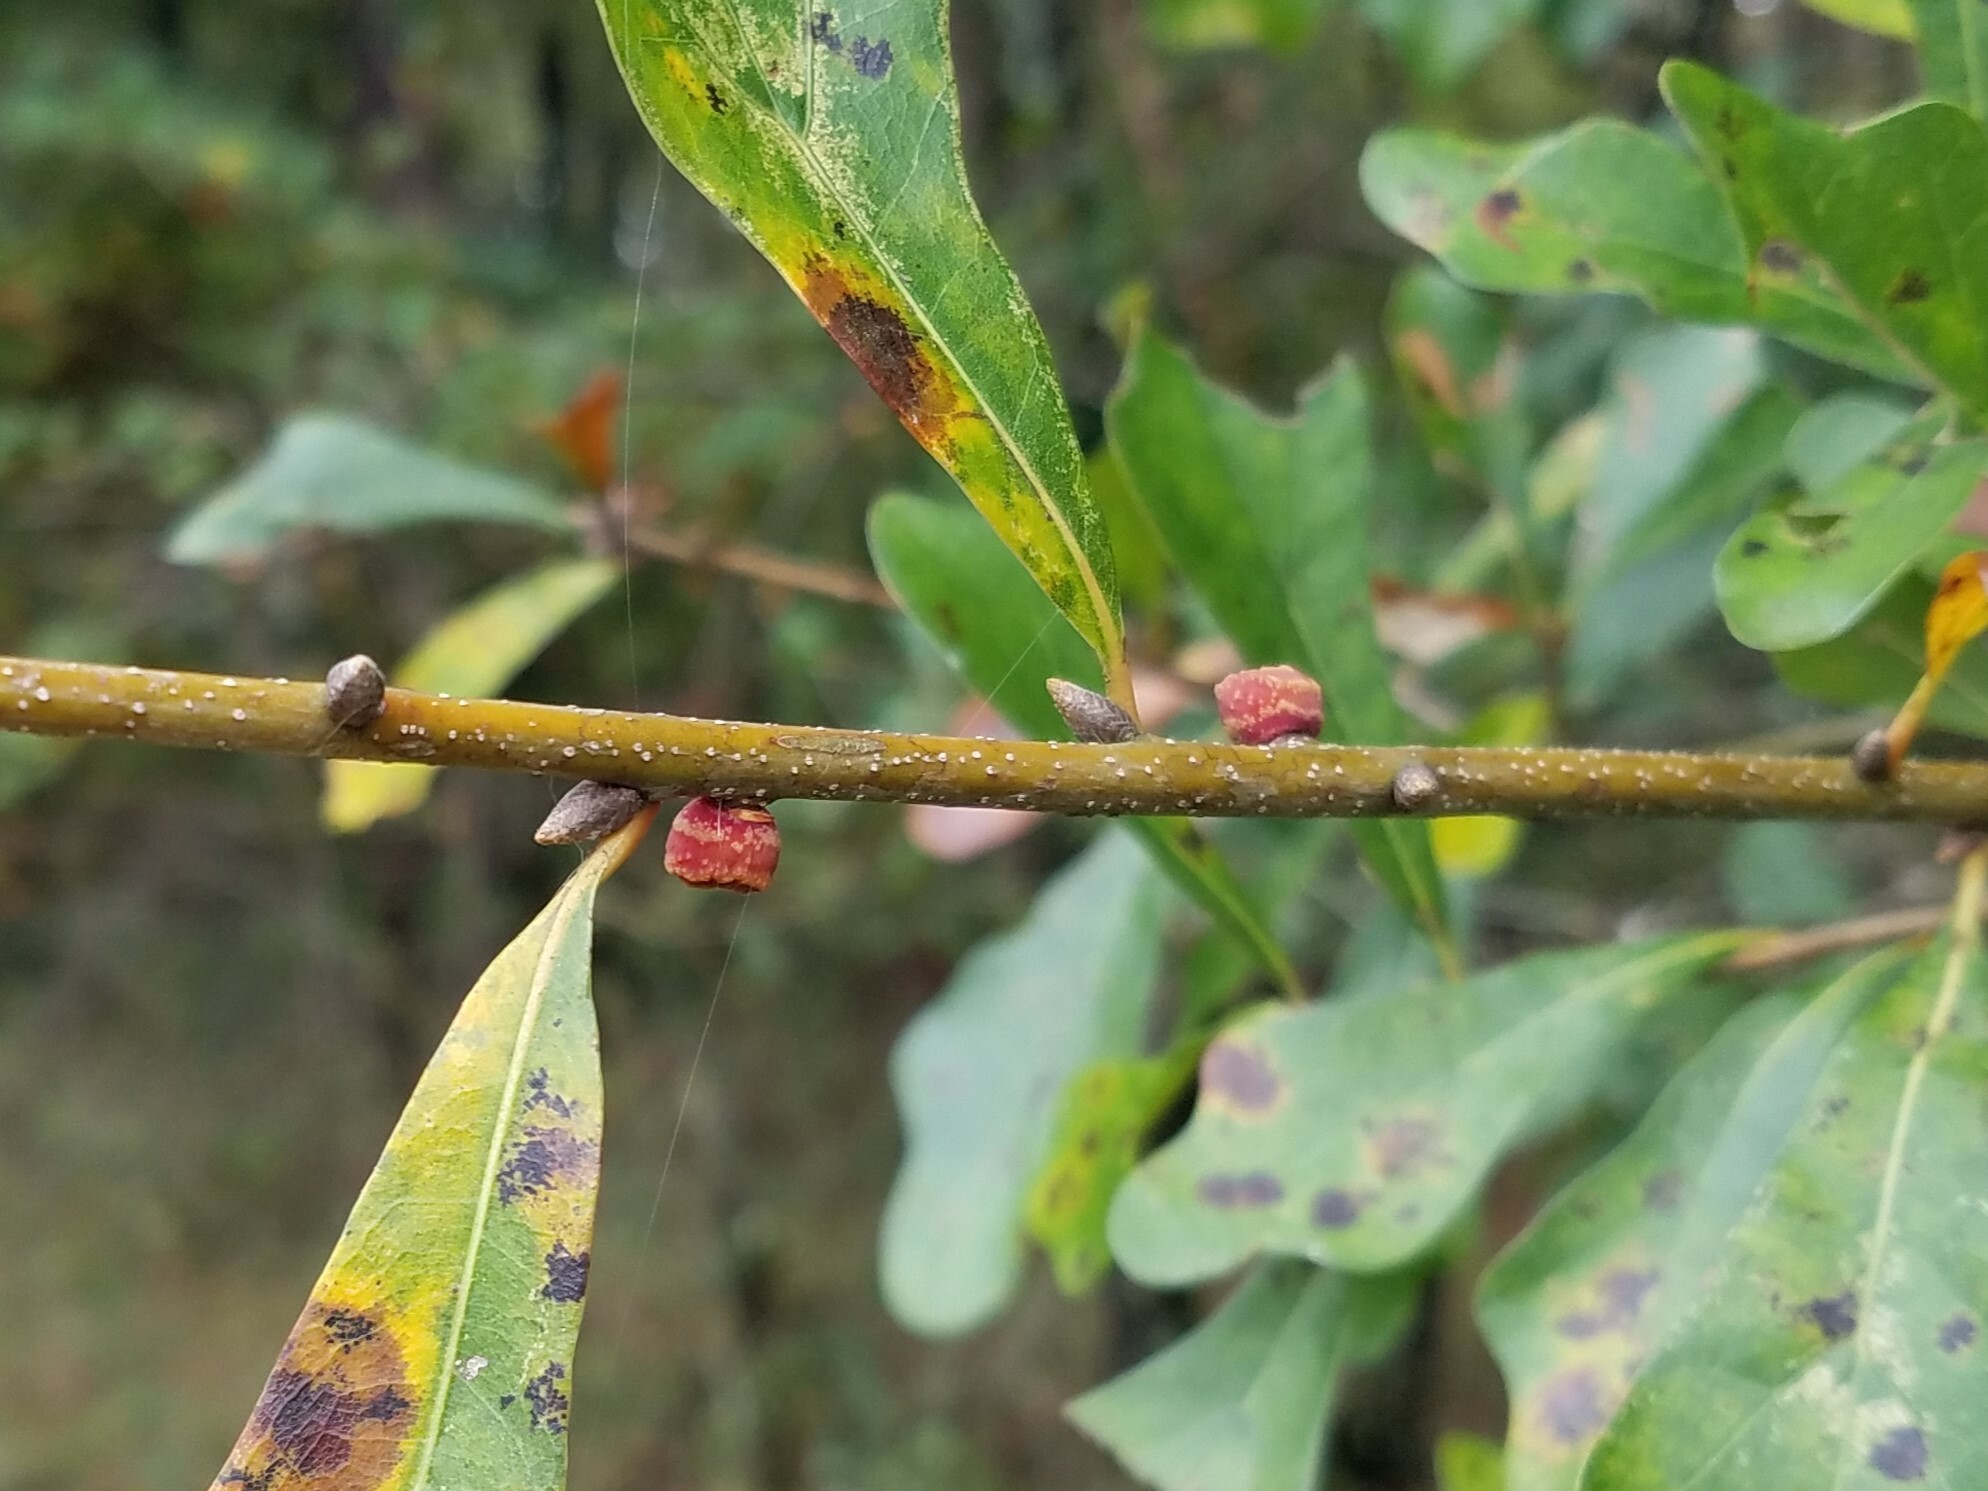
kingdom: Animalia
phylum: Arthropoda
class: Insecta
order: Hymenoptera
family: Cynipidae
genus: Kokkocynips
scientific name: Kokkocynips difficilis
